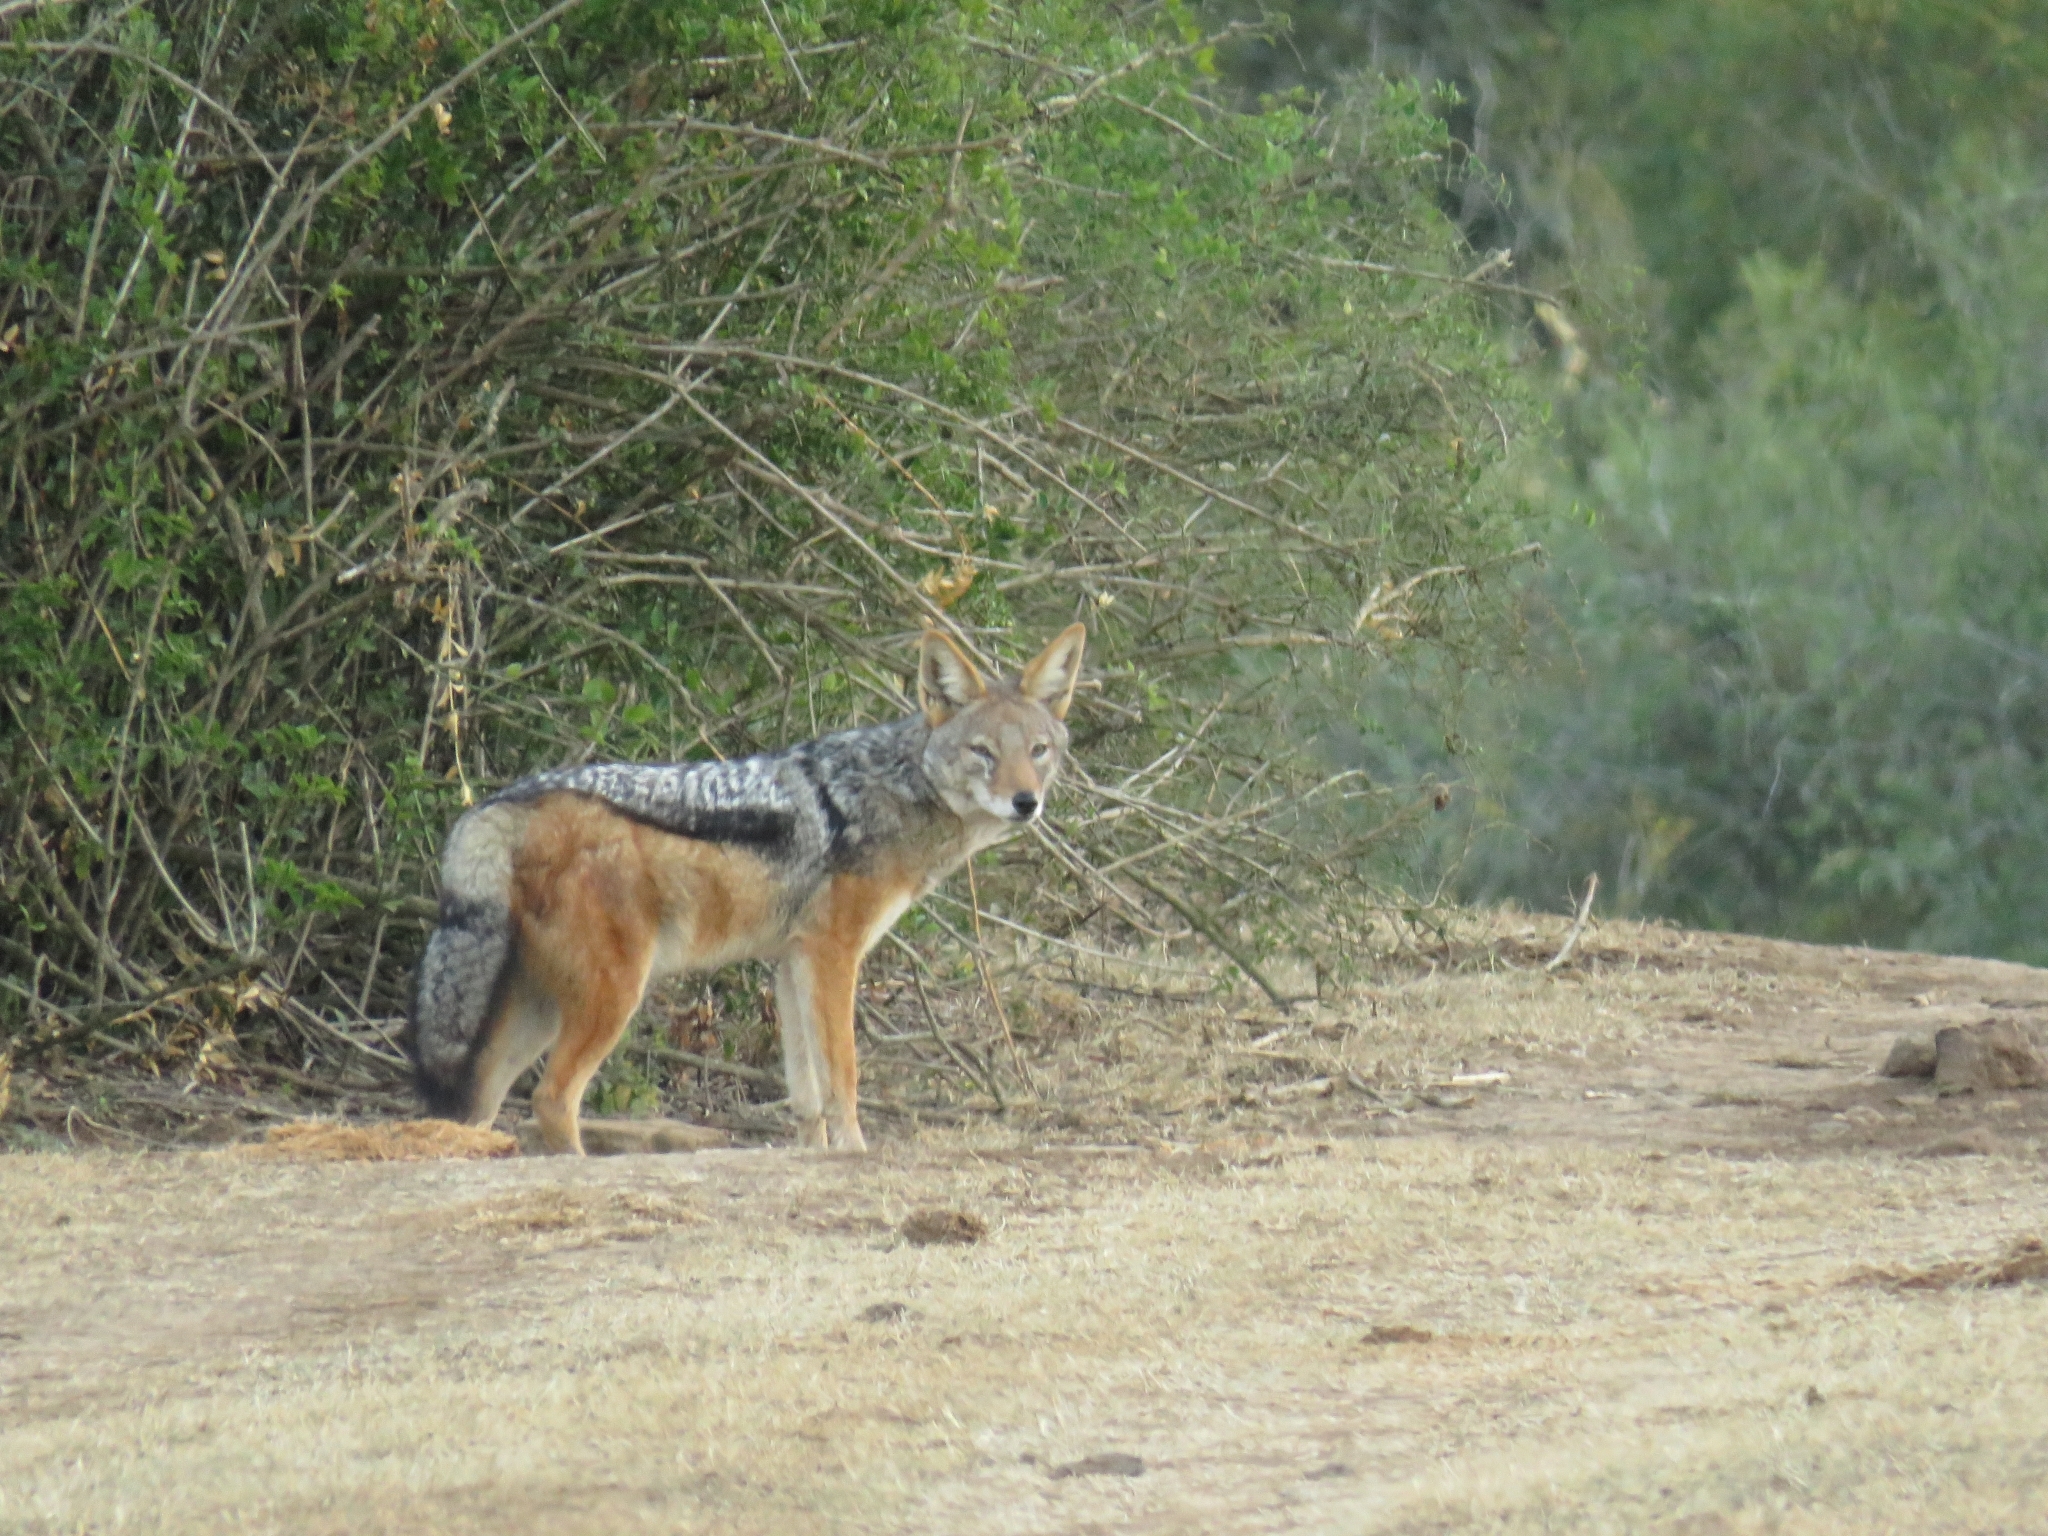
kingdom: Animalia
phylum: Chordata
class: Mammalia
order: Carnivora
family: Canidae
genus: Lupulella
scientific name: Lupulella
